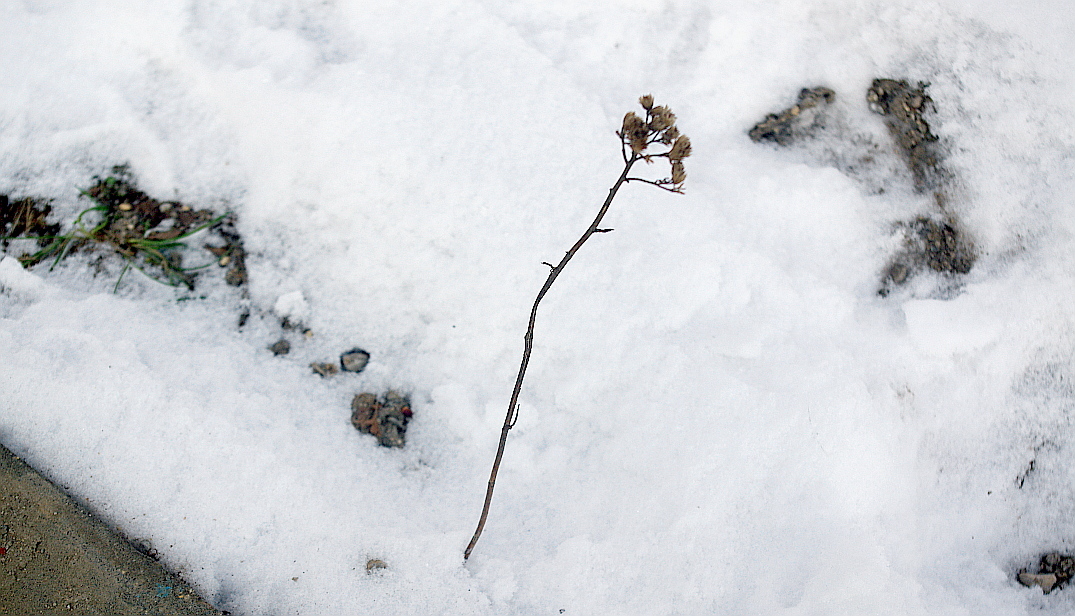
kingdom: Plantae
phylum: Tracheophyta
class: Magnoliopsida
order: Asterales
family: Asteraceae
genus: Achillea
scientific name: Achillea millefolium
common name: Yarrow
